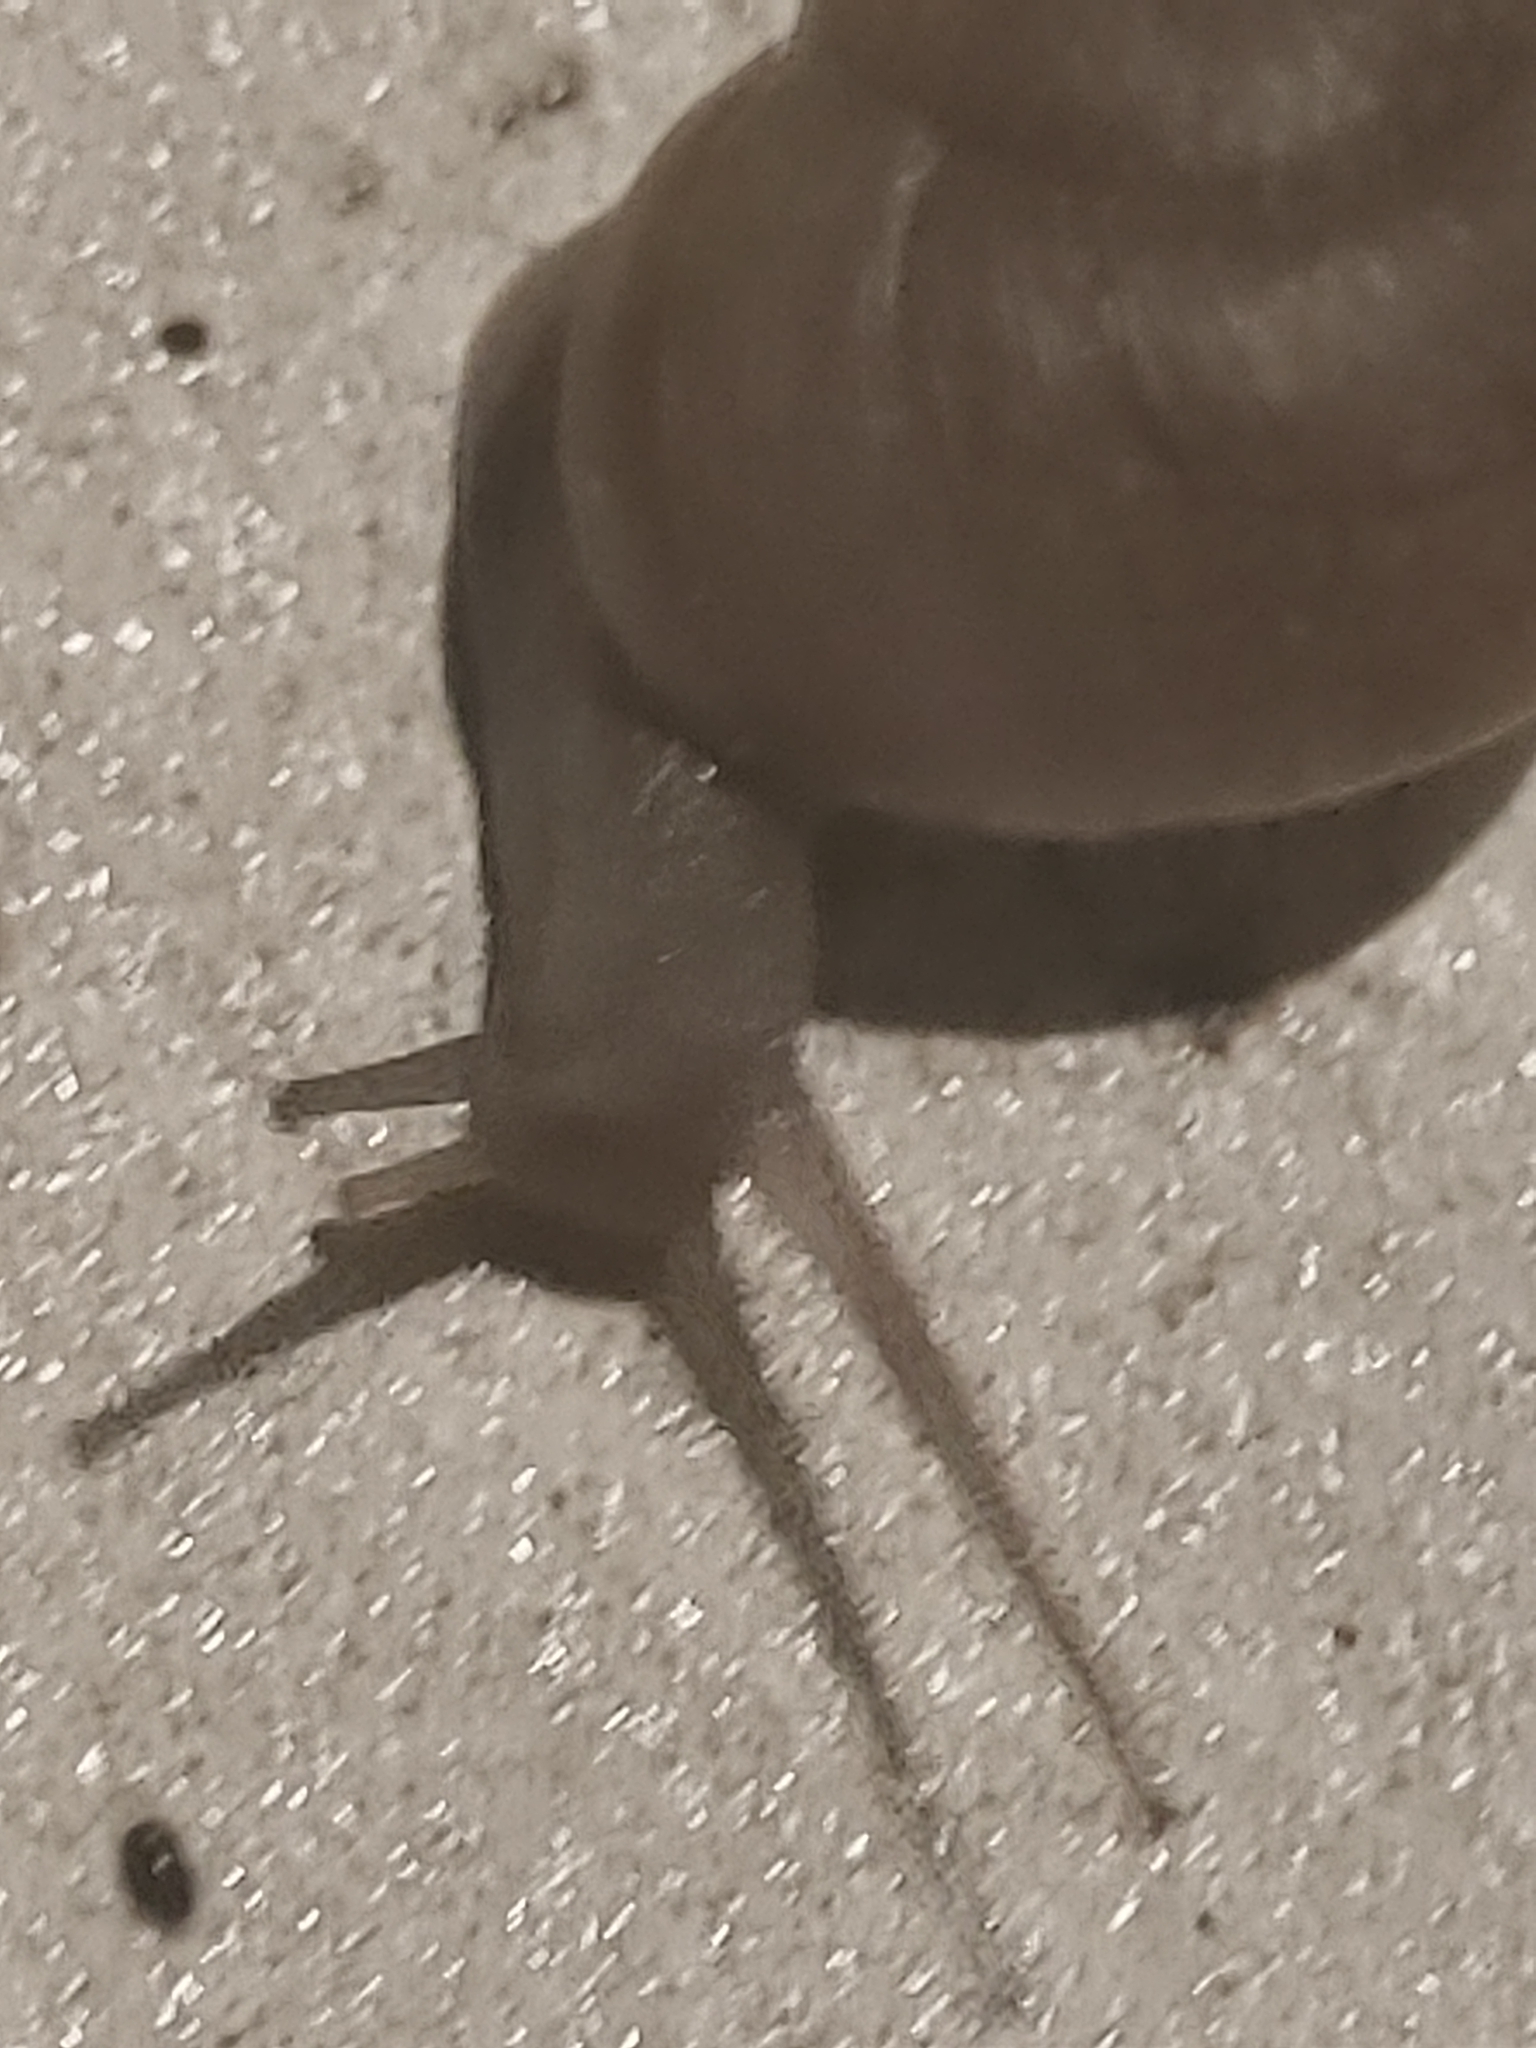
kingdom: Animalia
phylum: Mollusca
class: Gastropoda
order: Stylommatophora
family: Zachrysiidae
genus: Zachrysia
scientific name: Zachrysia provisoria
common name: Garden zachrysia
